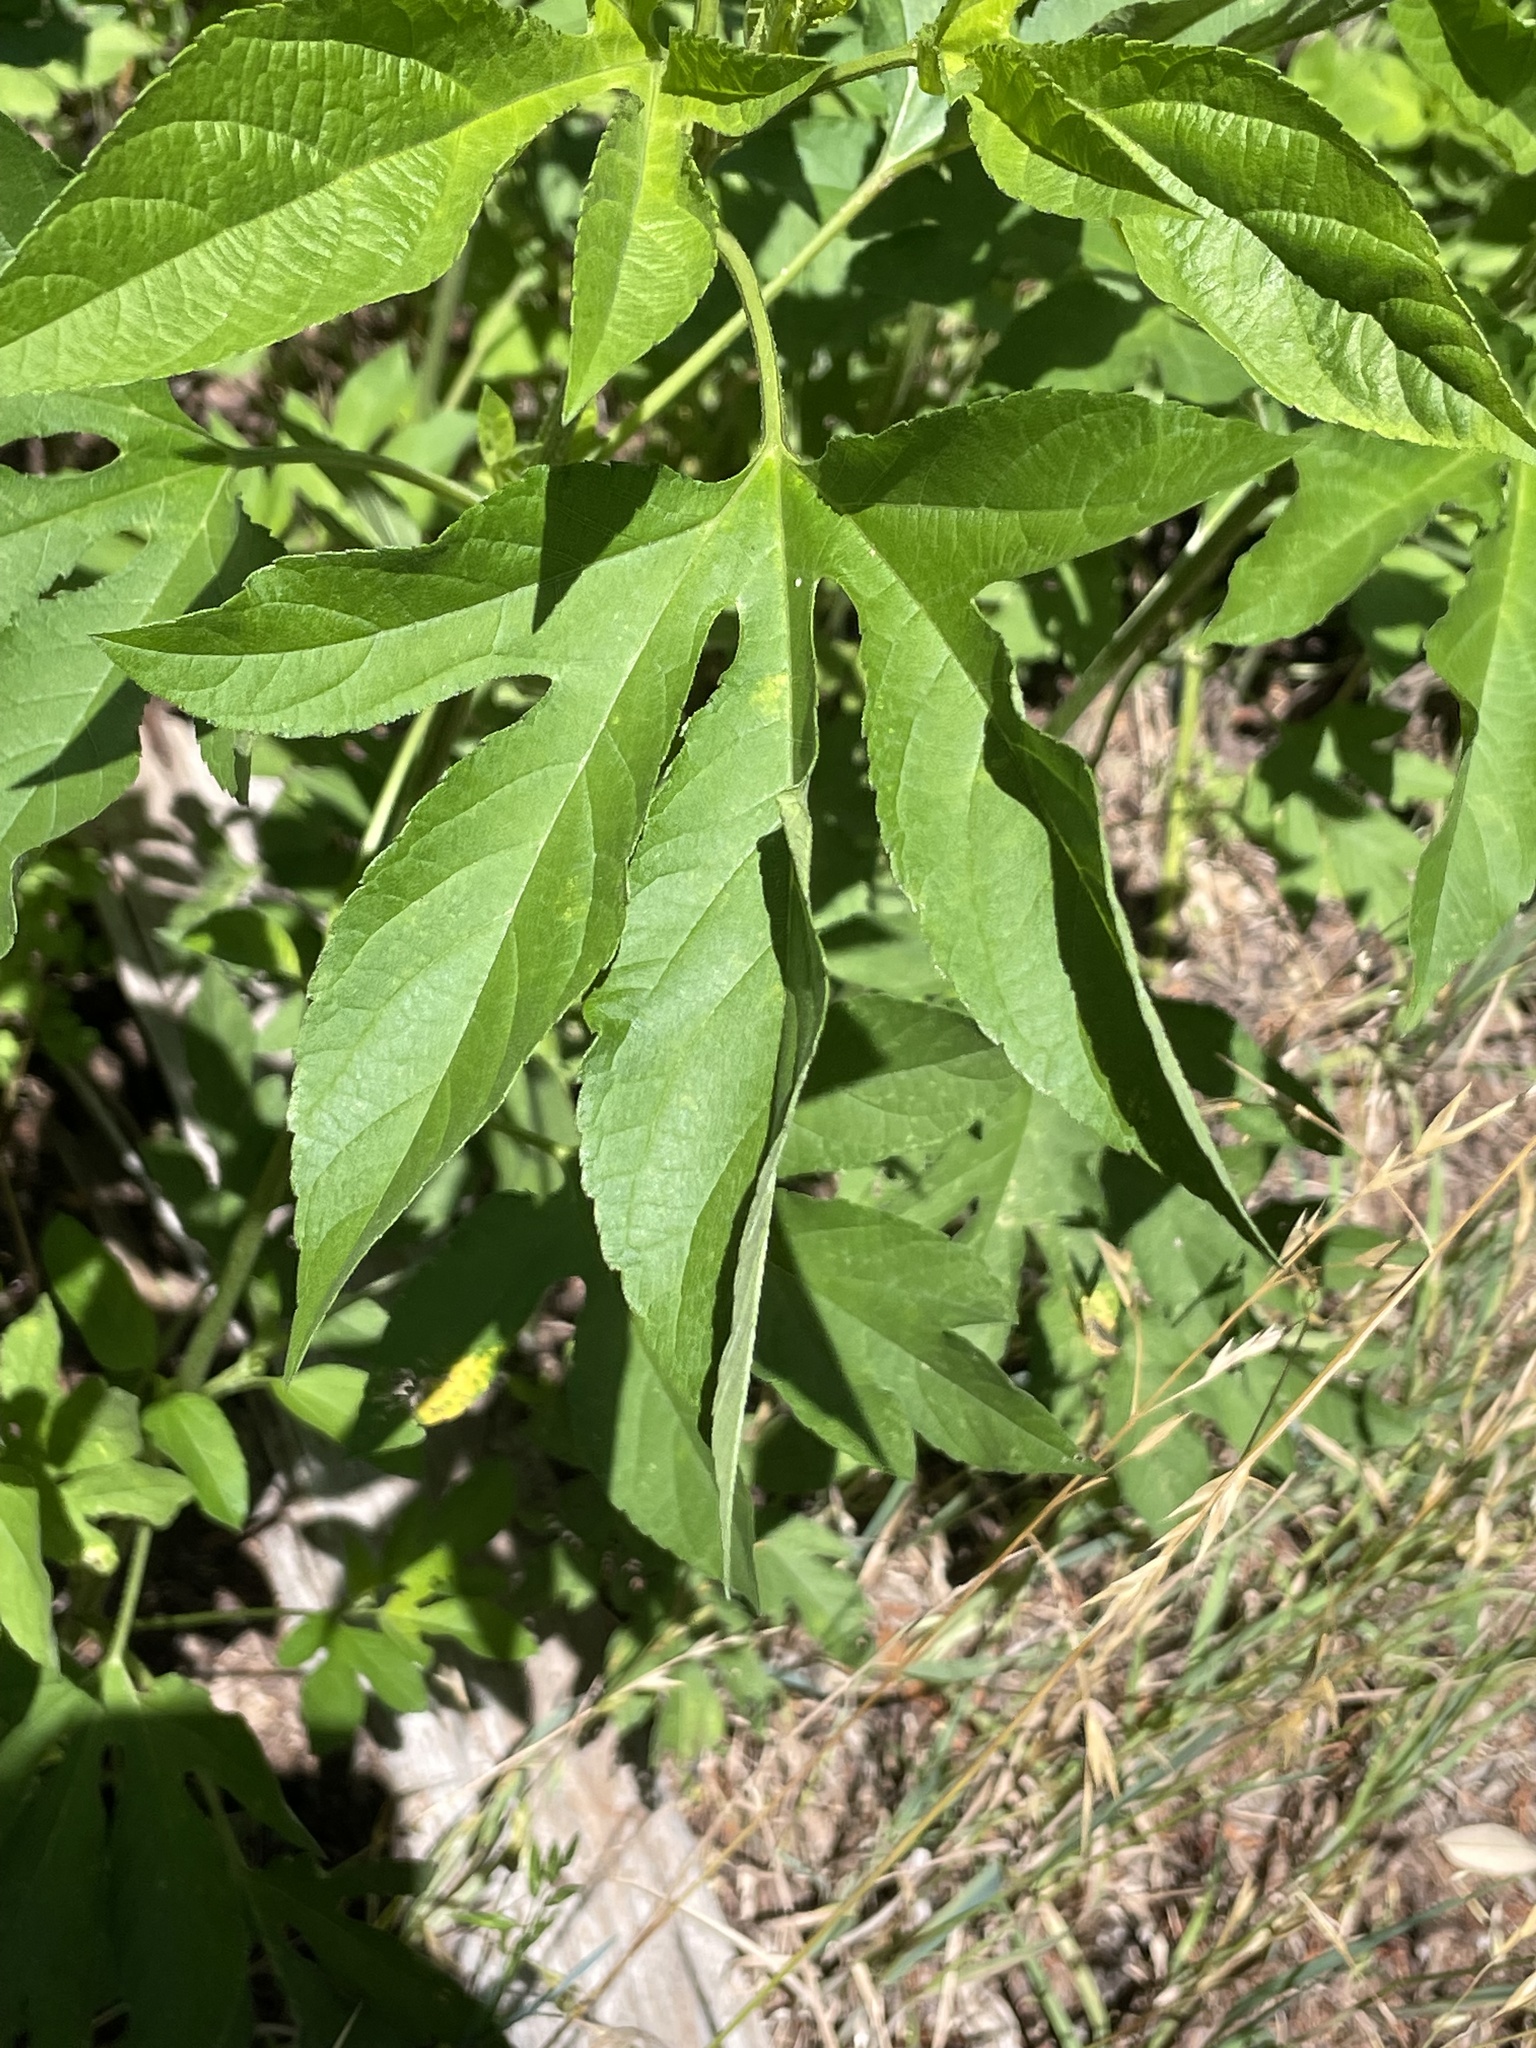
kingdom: Plantae
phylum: Tracheophyta
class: Magnoliopsida
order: Asterales
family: Asteraceae
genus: Ambrosia
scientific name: Ambrosia trifida
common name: Giant ragweed
